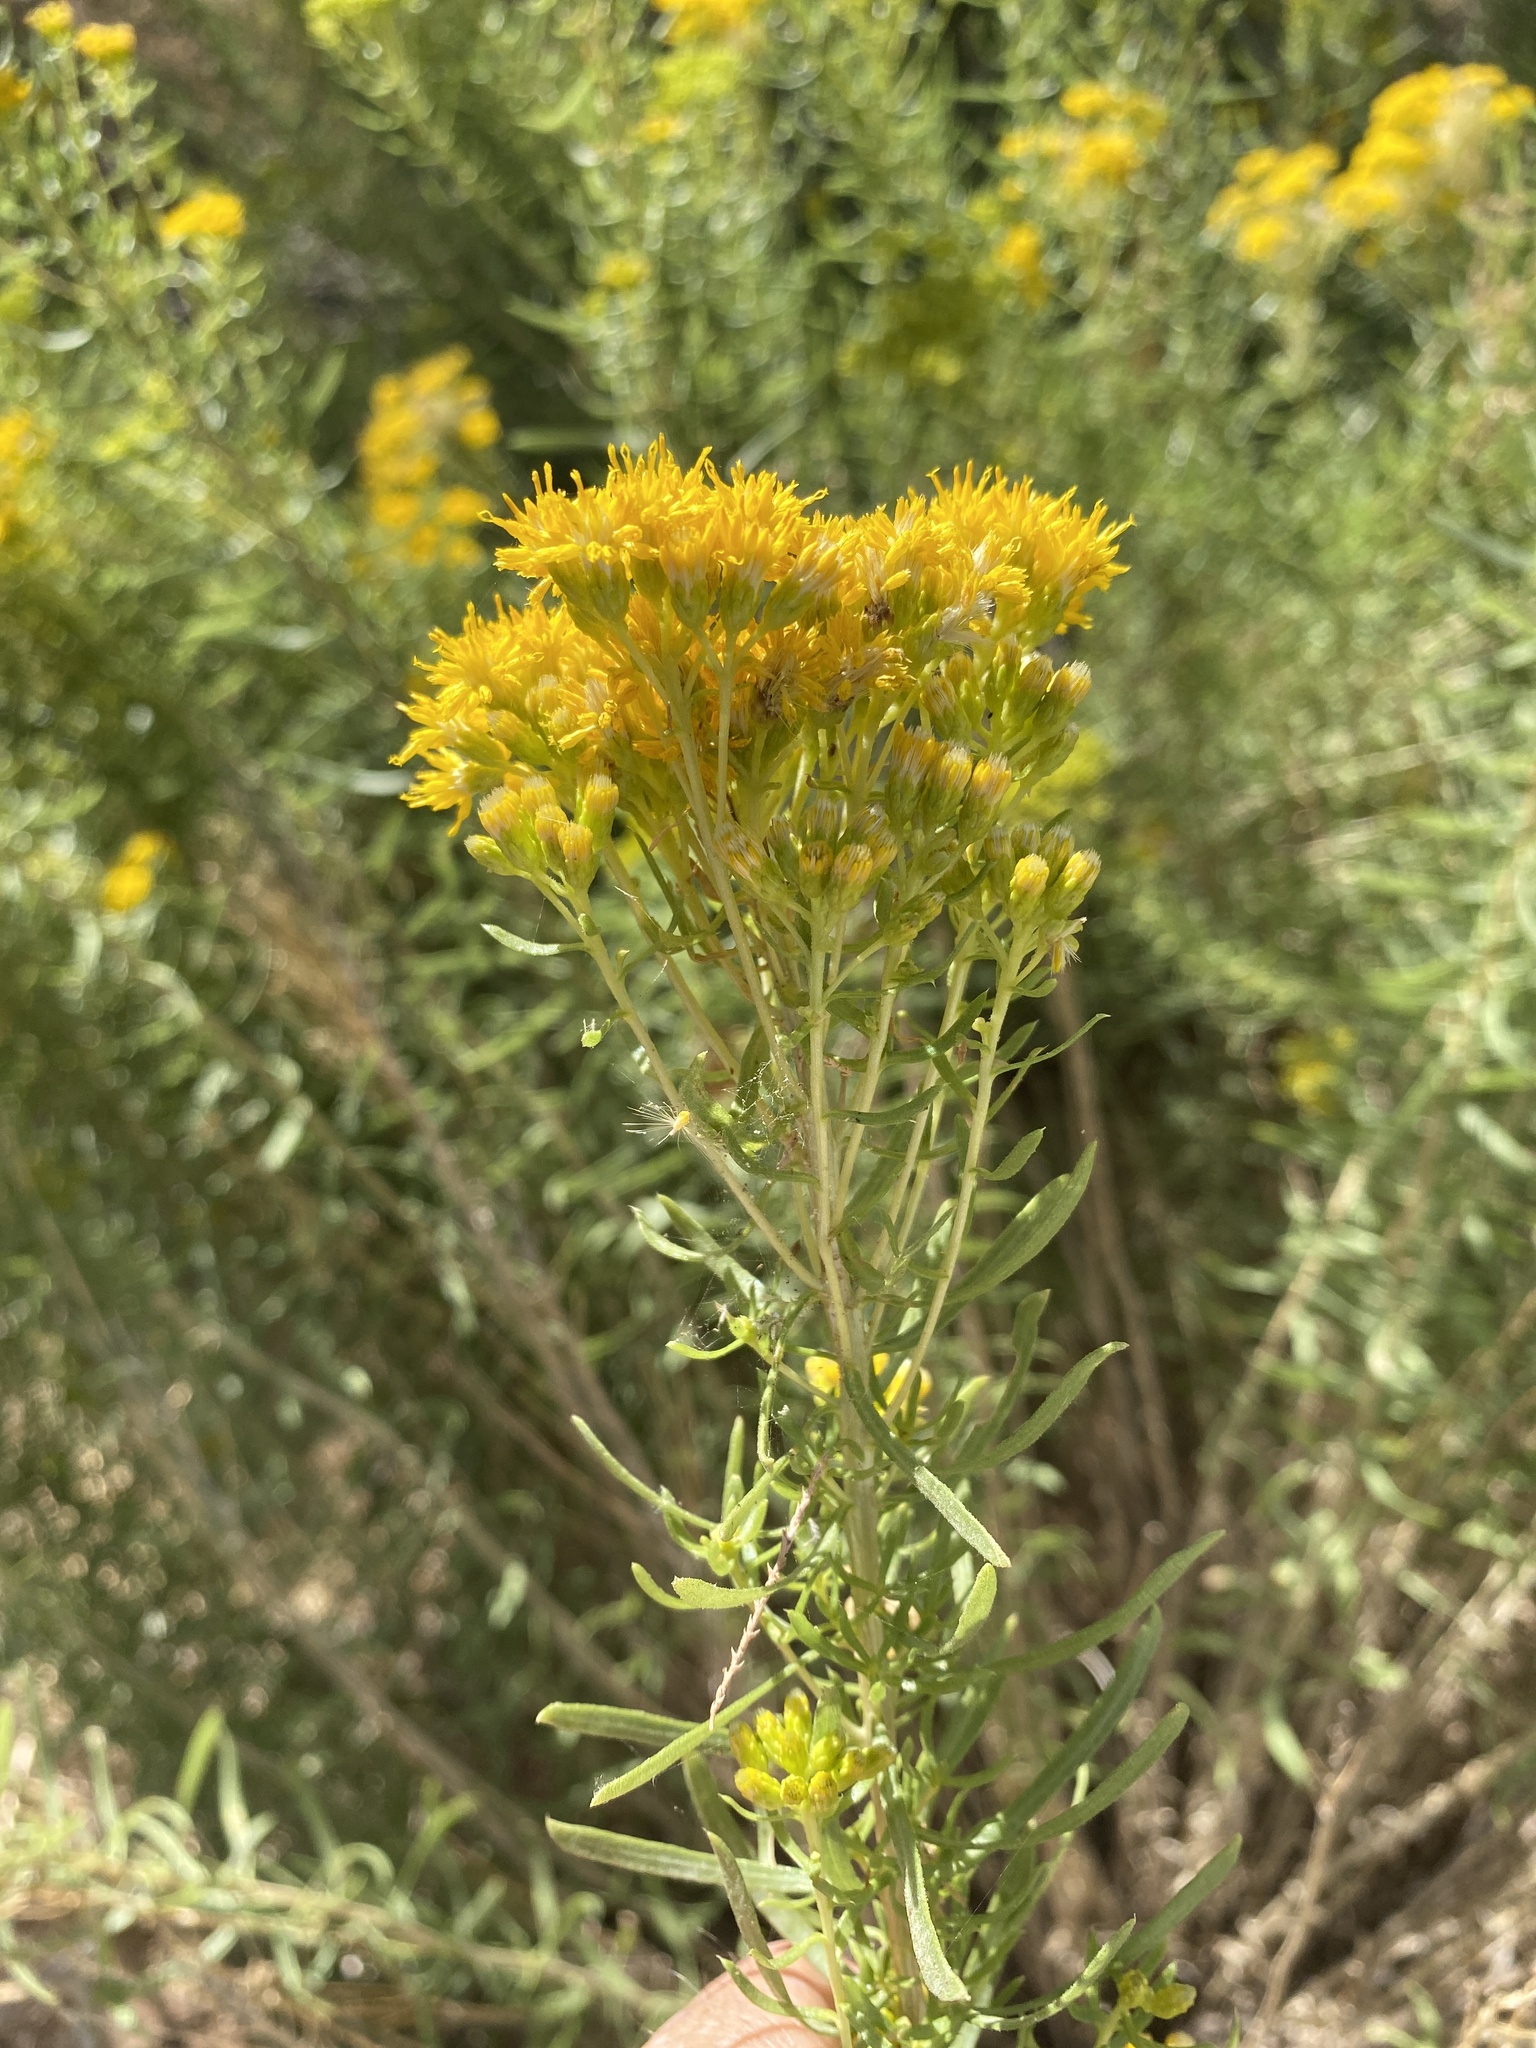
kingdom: Plantae
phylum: Tracheophyta
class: Magnoliopsida
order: Asterales
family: Asteraceae
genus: Isocoma
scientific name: Isocoma pluriflora
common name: Southern jimmyweed
